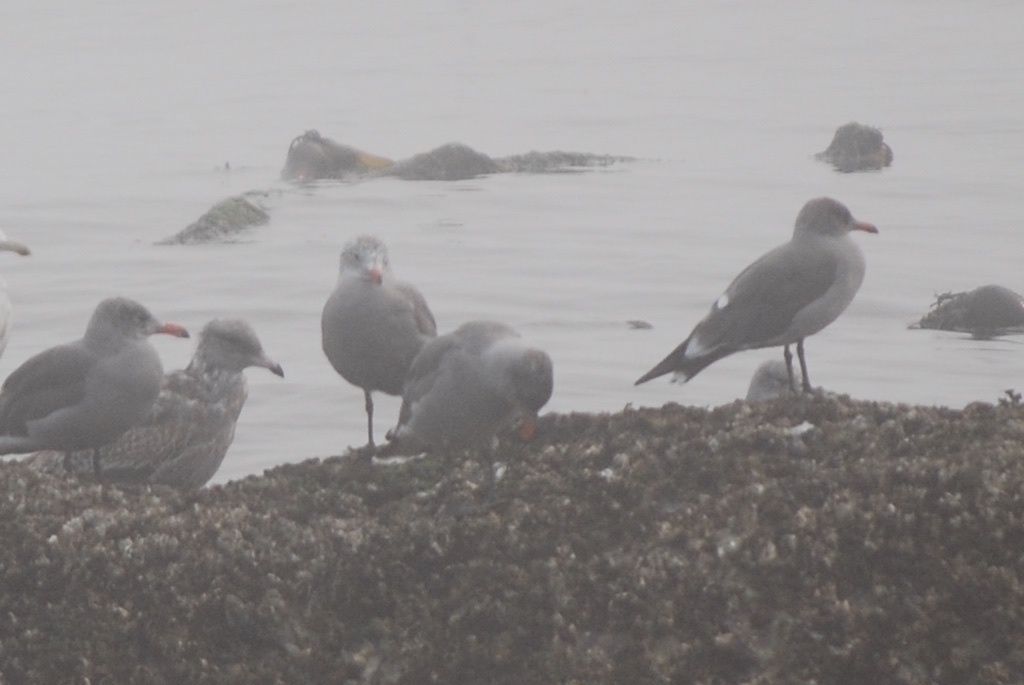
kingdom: Animalia
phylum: Chordata
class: Aves
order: Charadriiformes
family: Laridae
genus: Larus
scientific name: Larus heermanni
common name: Heermann's gull
